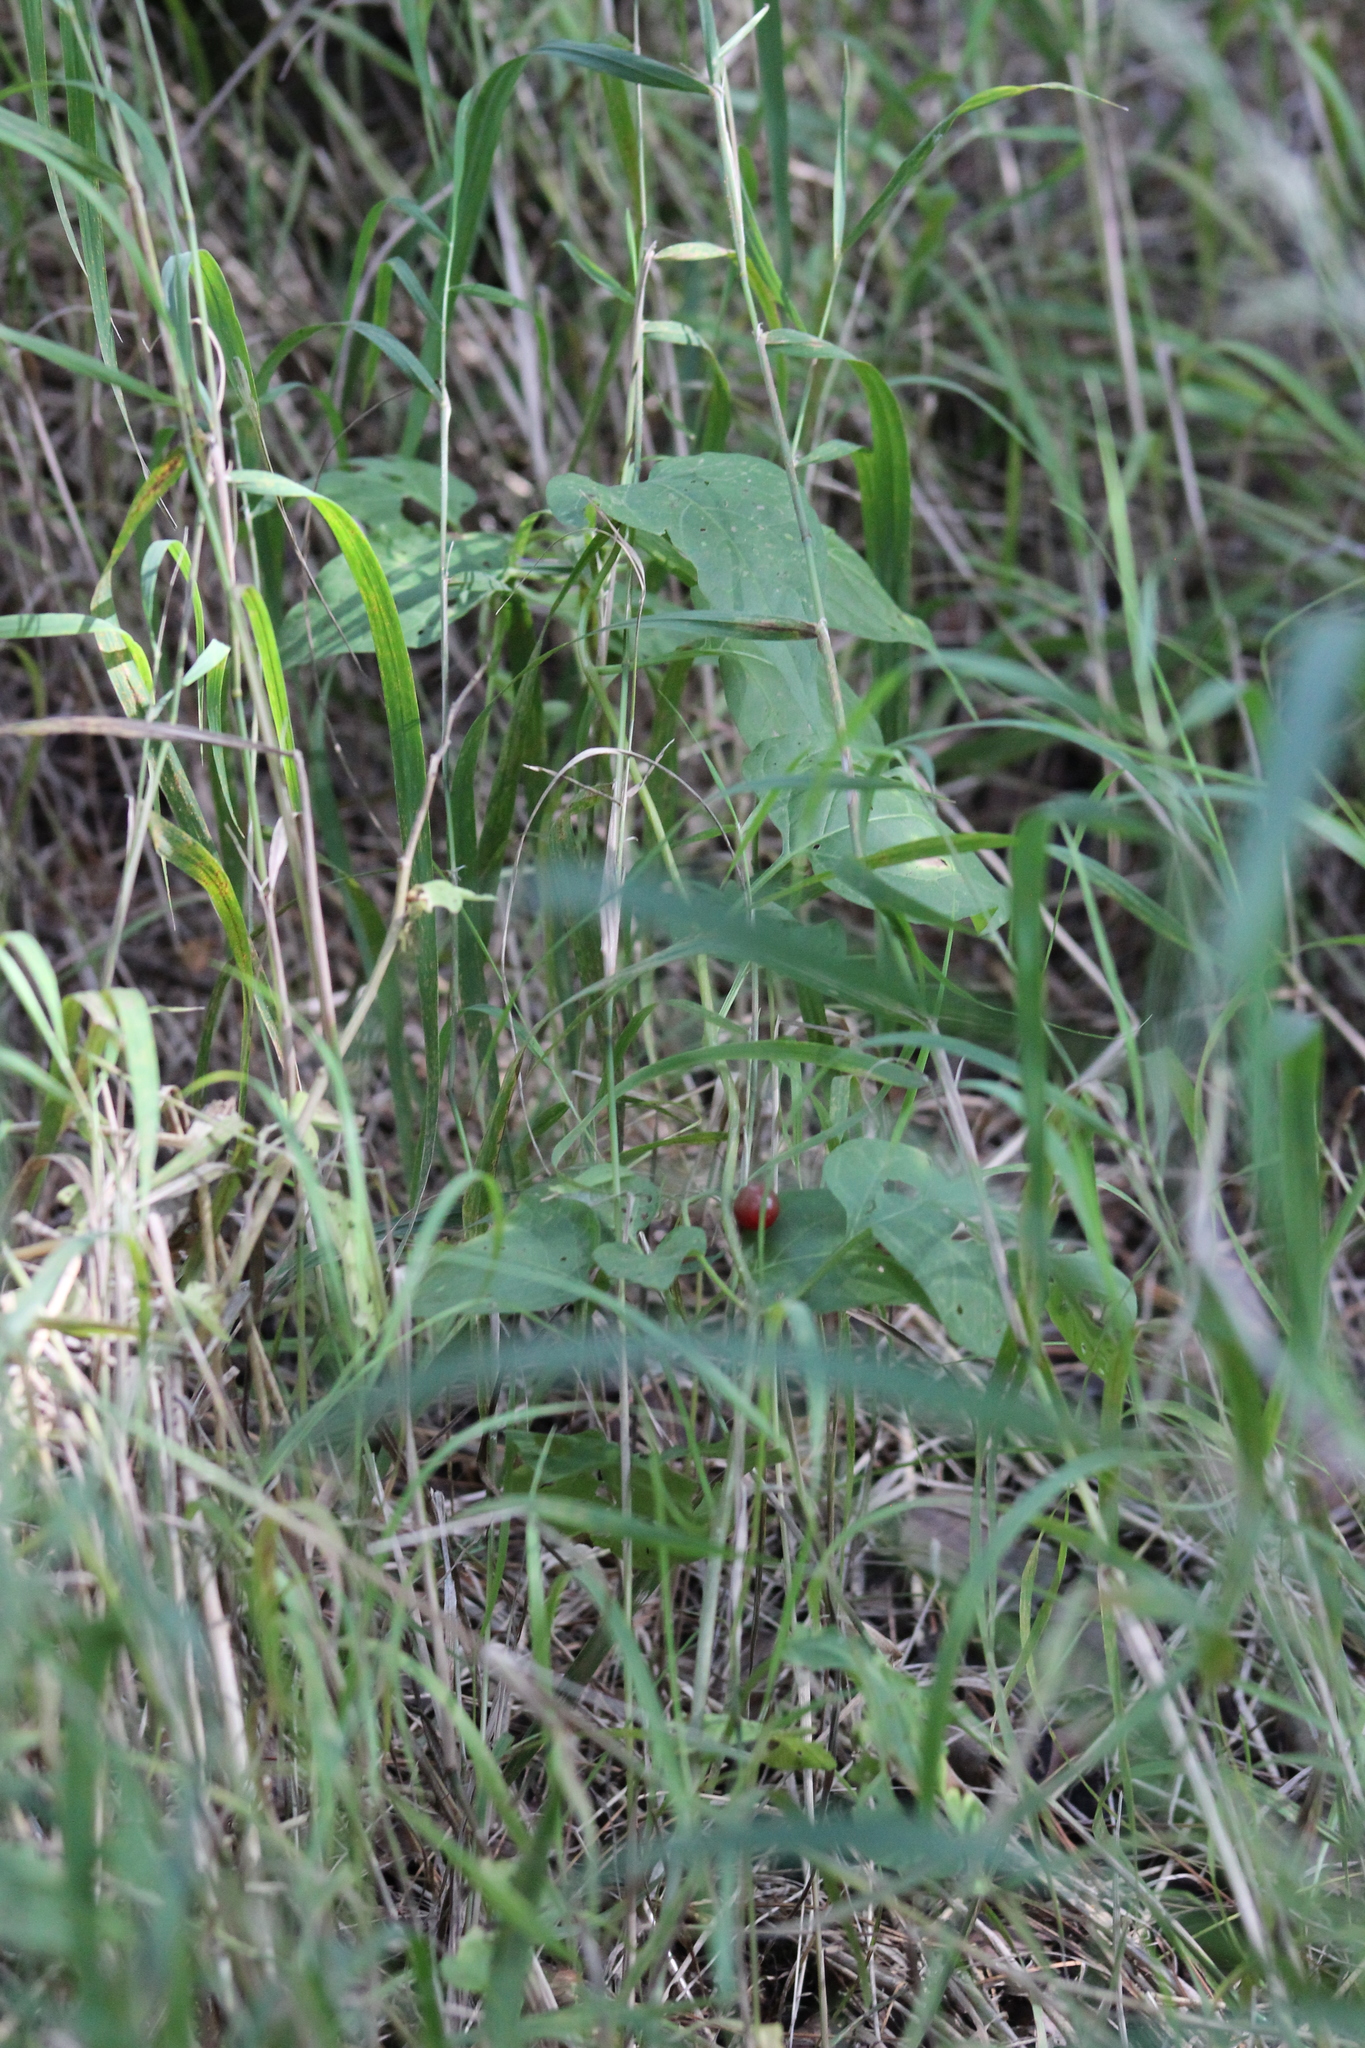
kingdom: Plantae
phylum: Tracheophyta
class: Magnoliopsida
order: Myrtales
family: Onagraceae
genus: Epilobium
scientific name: Epilobium pseudorubescens
